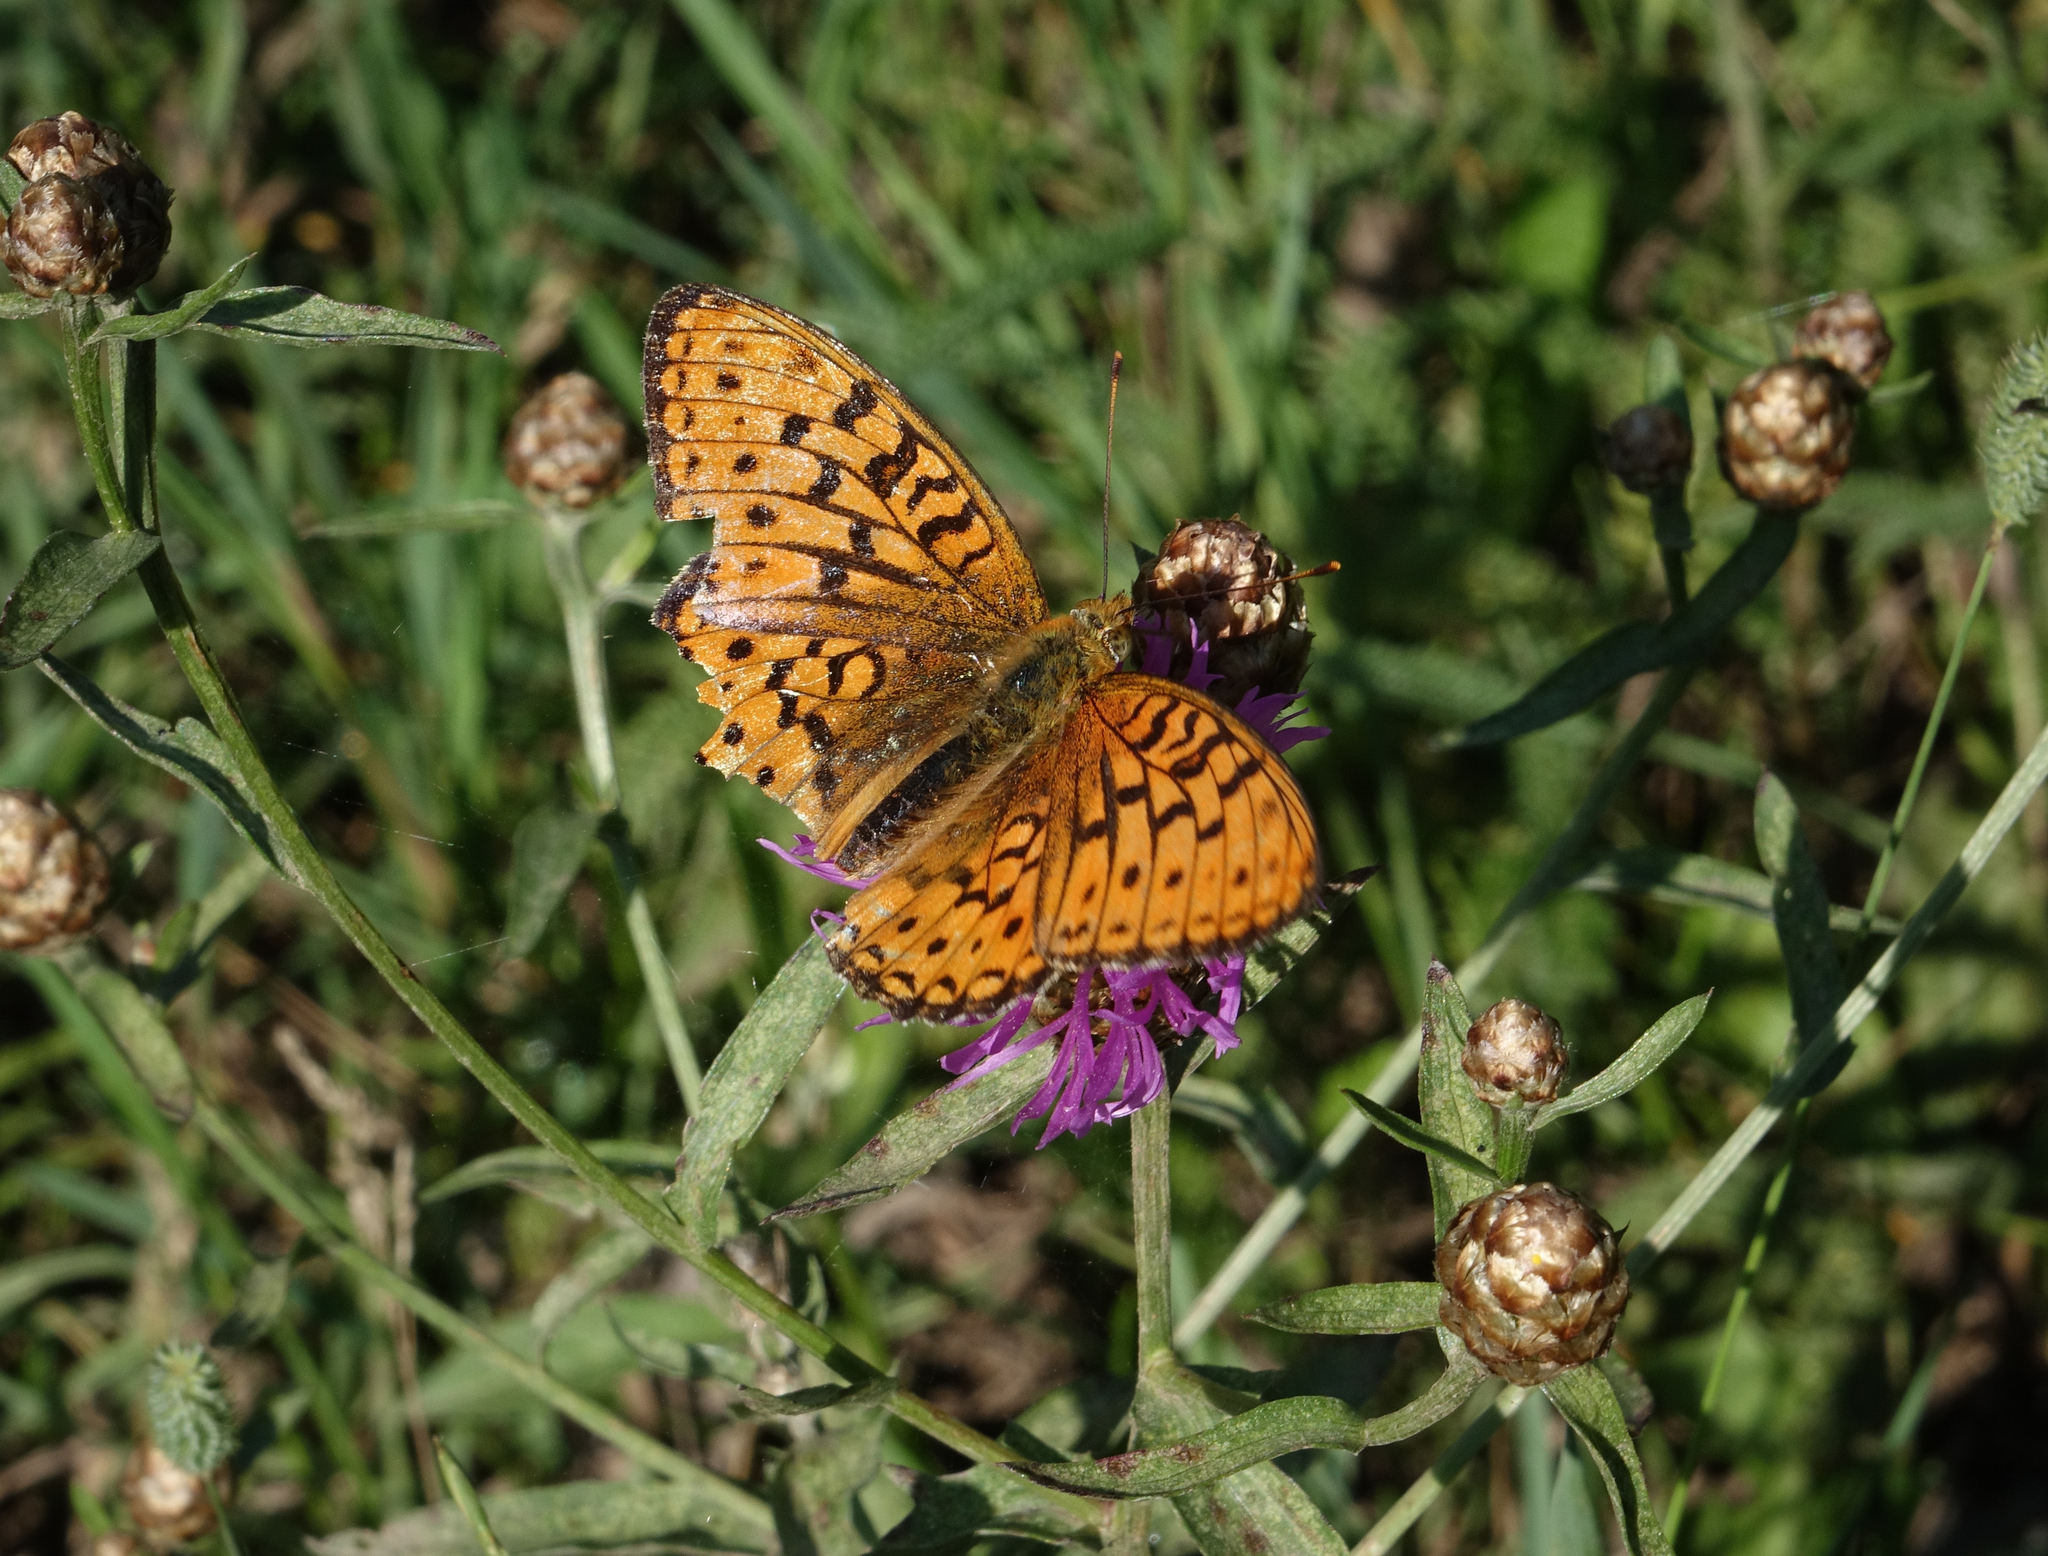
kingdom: Animalia
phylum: Arthropoda
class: Insecta
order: Lepidoptera
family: Nymphalidae
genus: Fabriciana
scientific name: Fabriciana adippe
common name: High brown fritillary
